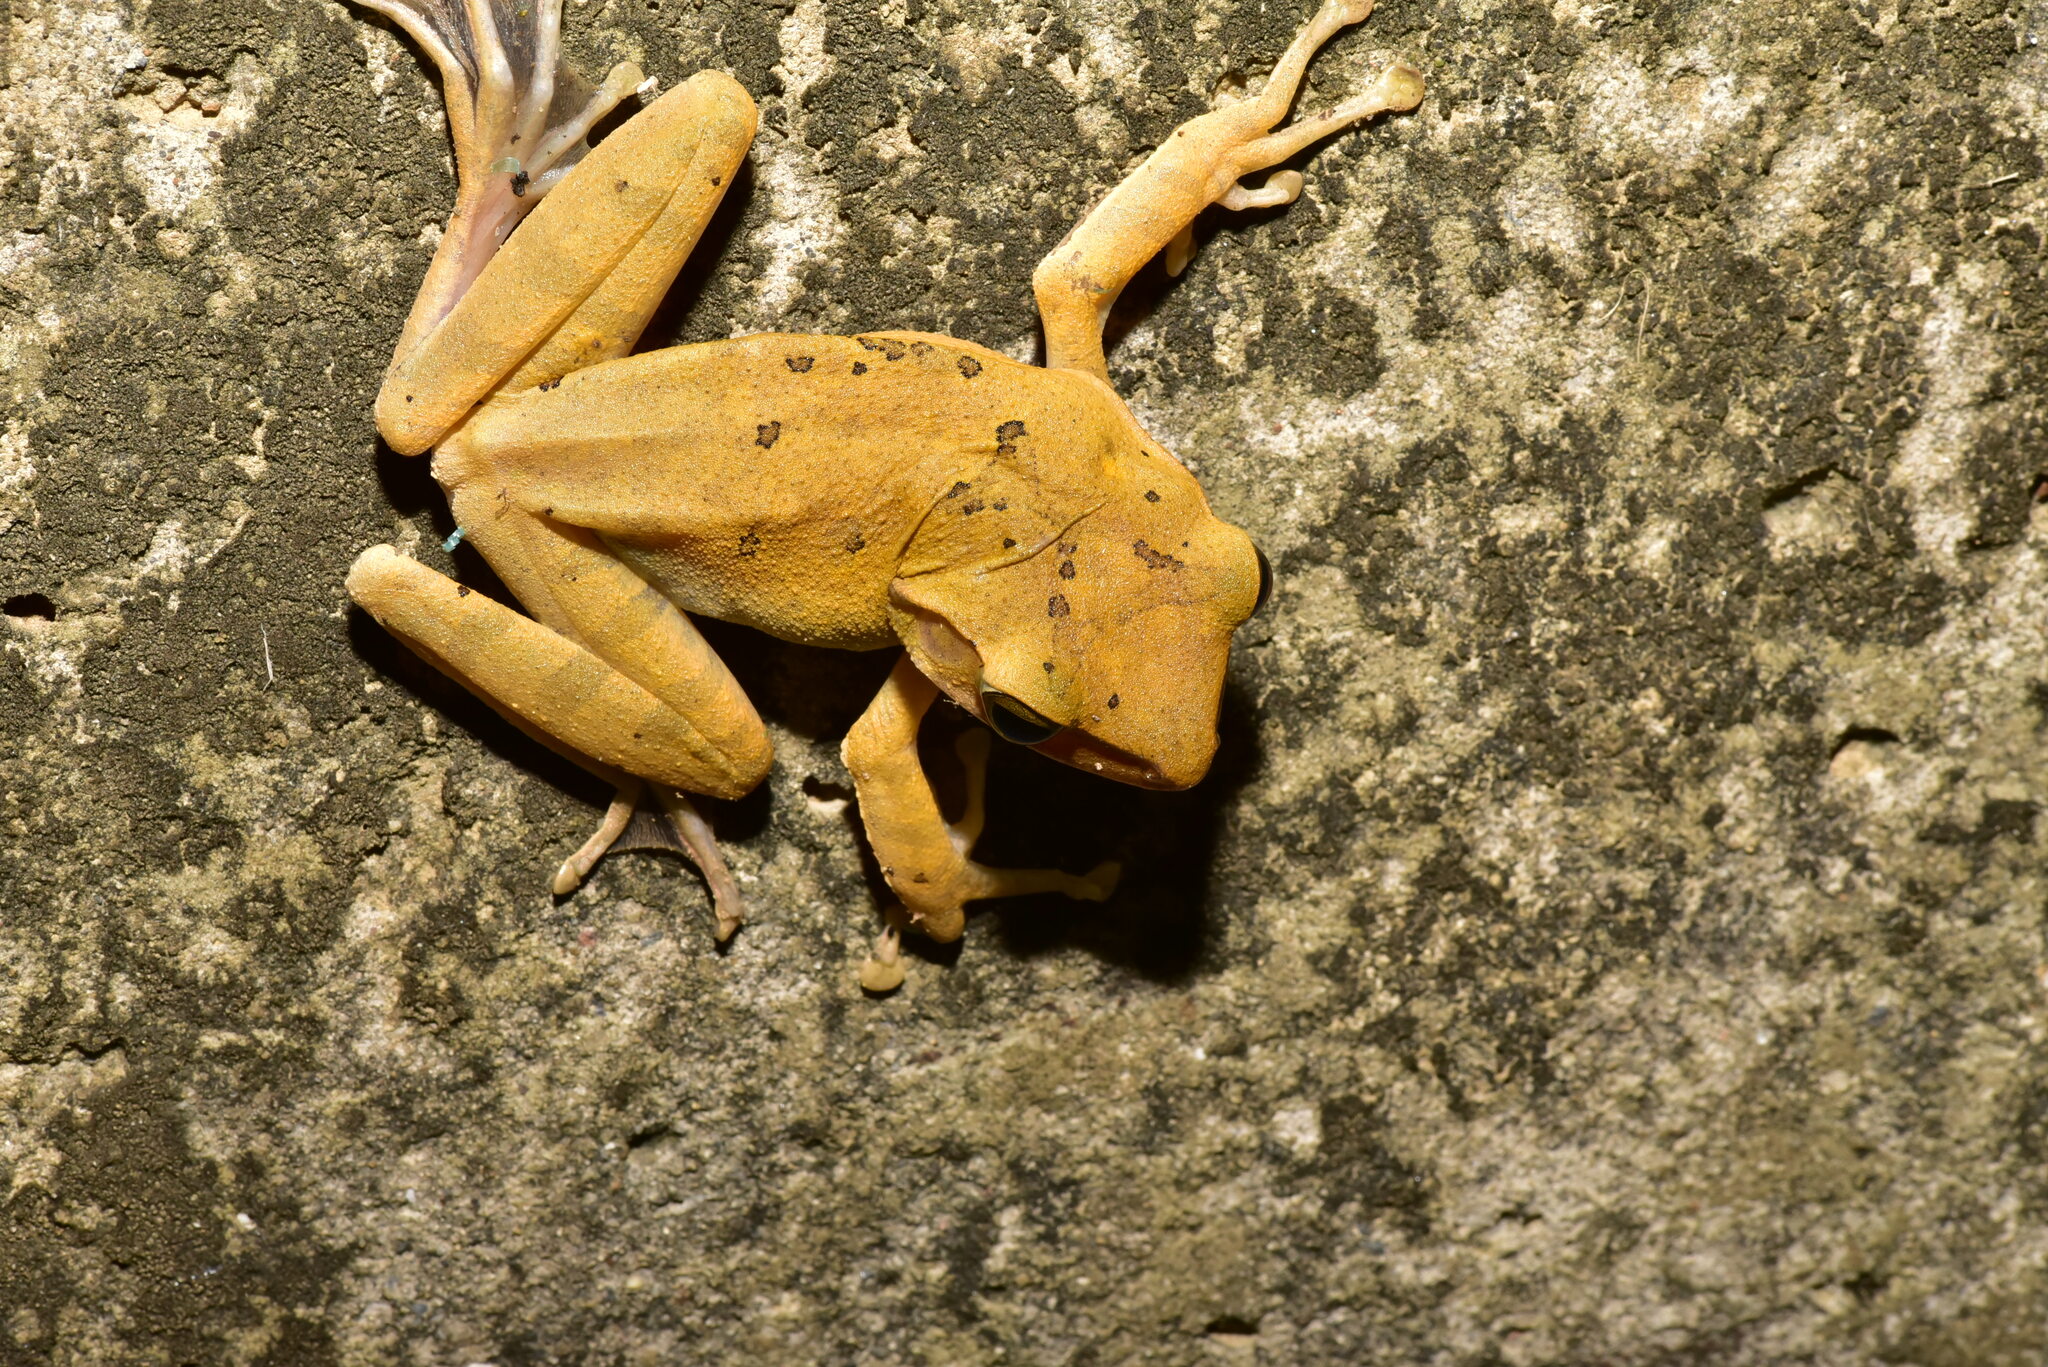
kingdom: Animalia
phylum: Chordata
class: Amphibia
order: Anura
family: Rhacophoridae
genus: Polypedates
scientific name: Polypedates megacephalus
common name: Hong kong whipping frog
